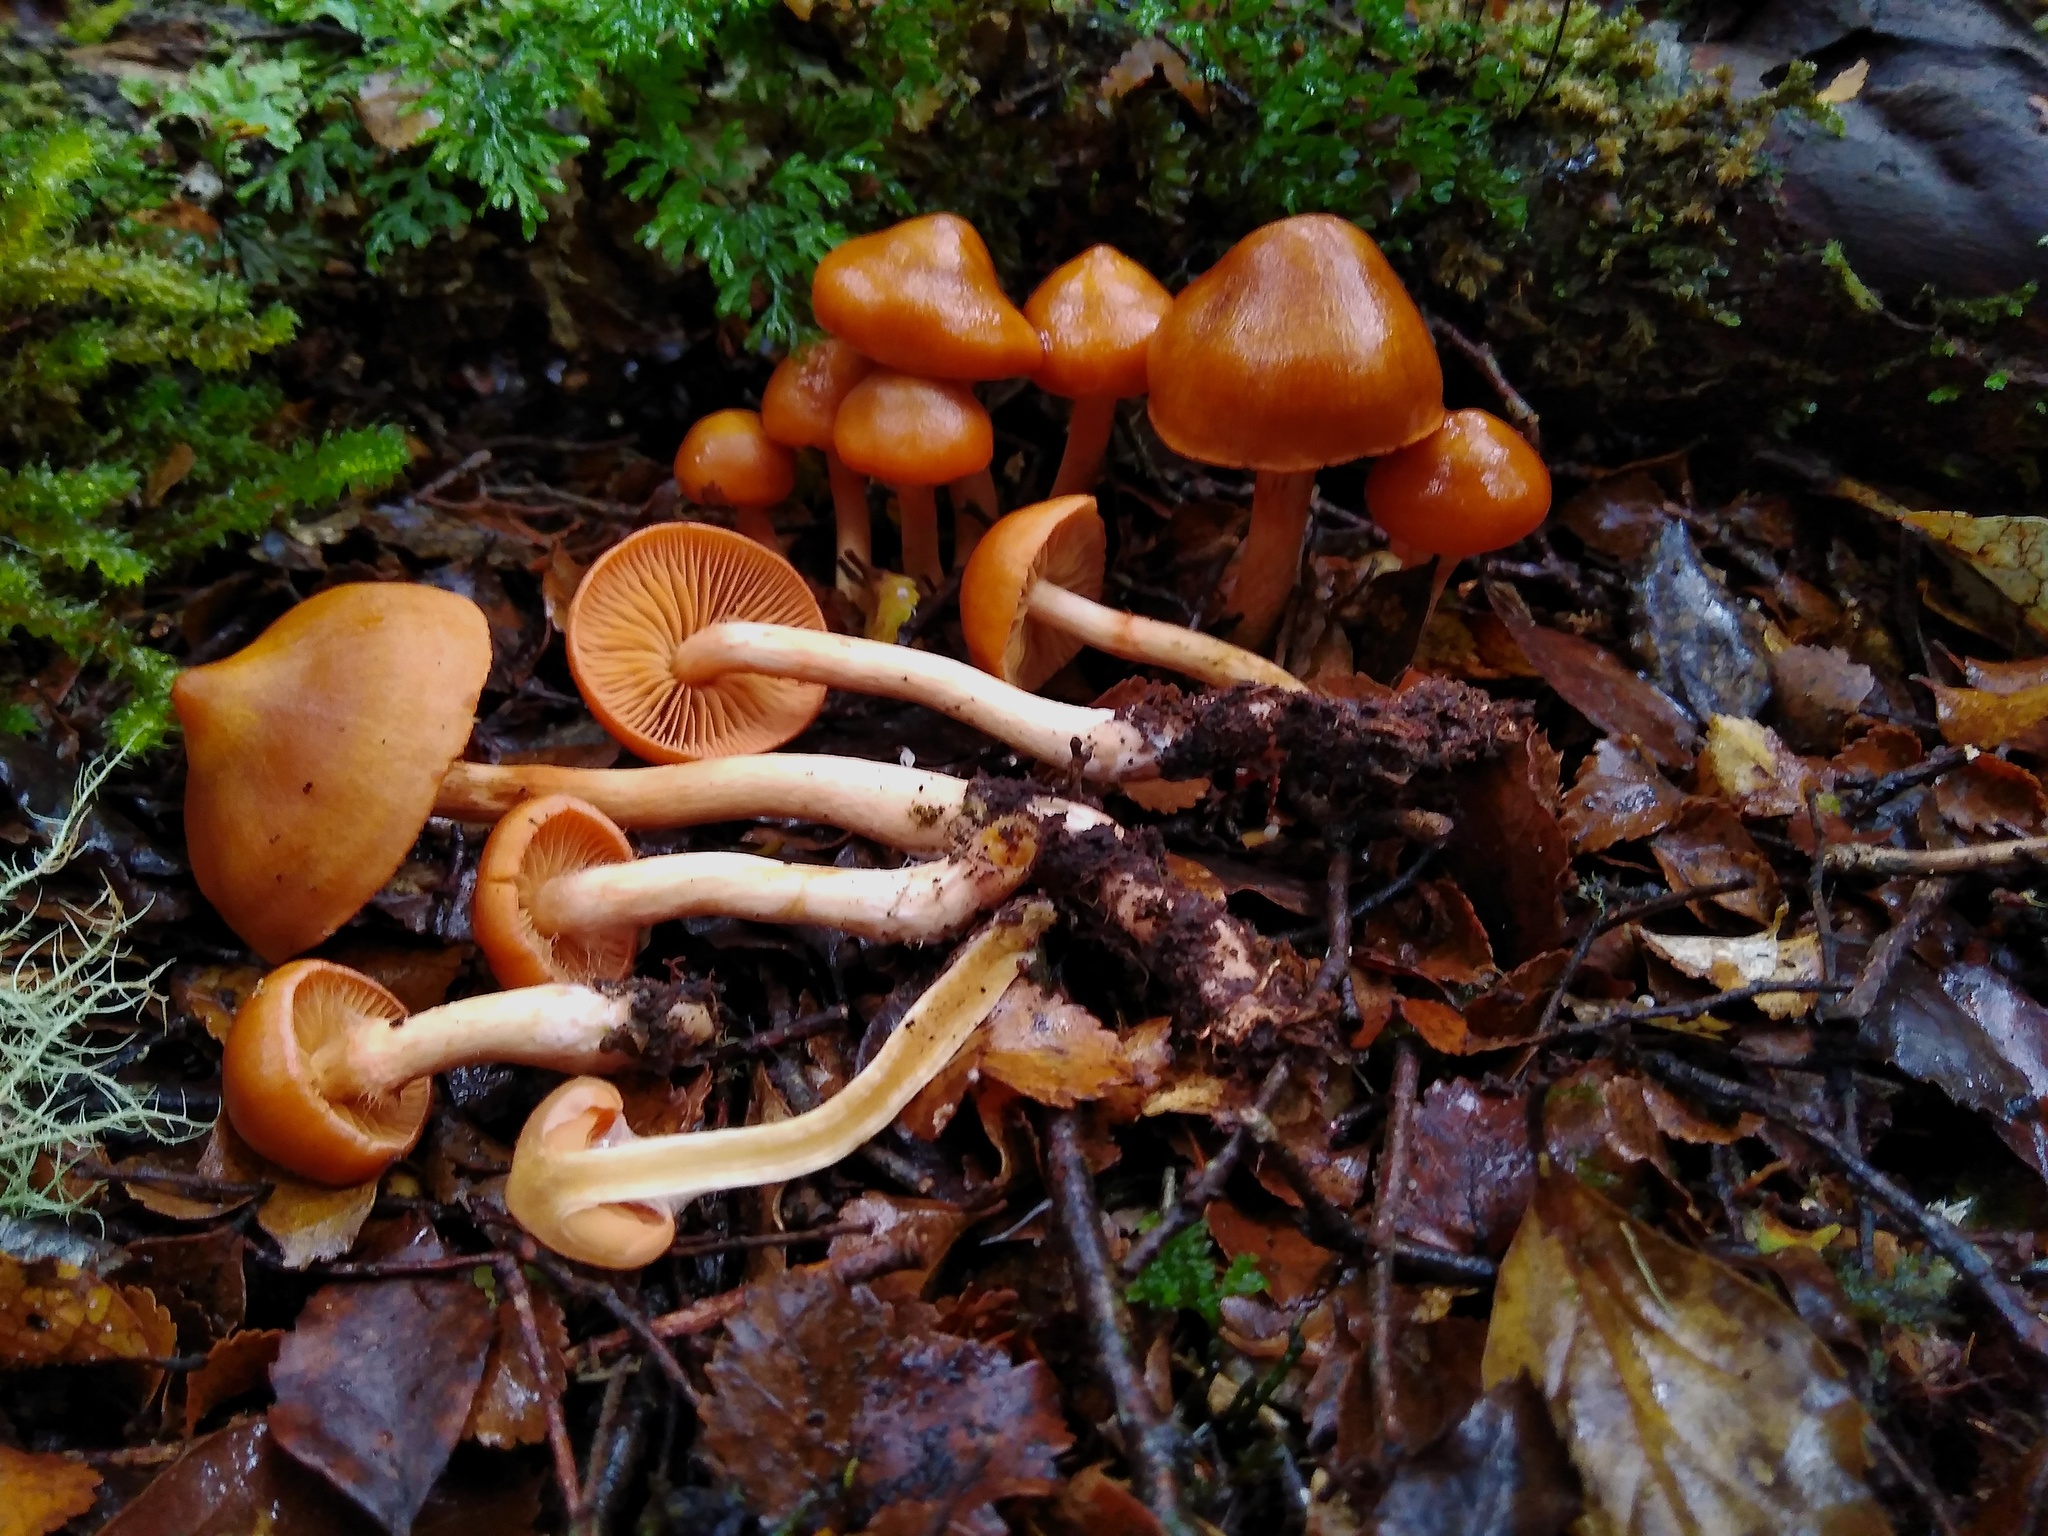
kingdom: Fungi
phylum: Basidiomycota
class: Agaricomycetes
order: Agaricales
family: Cortinariaceae
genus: Cortinarius
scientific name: Cortinarius veronicae
